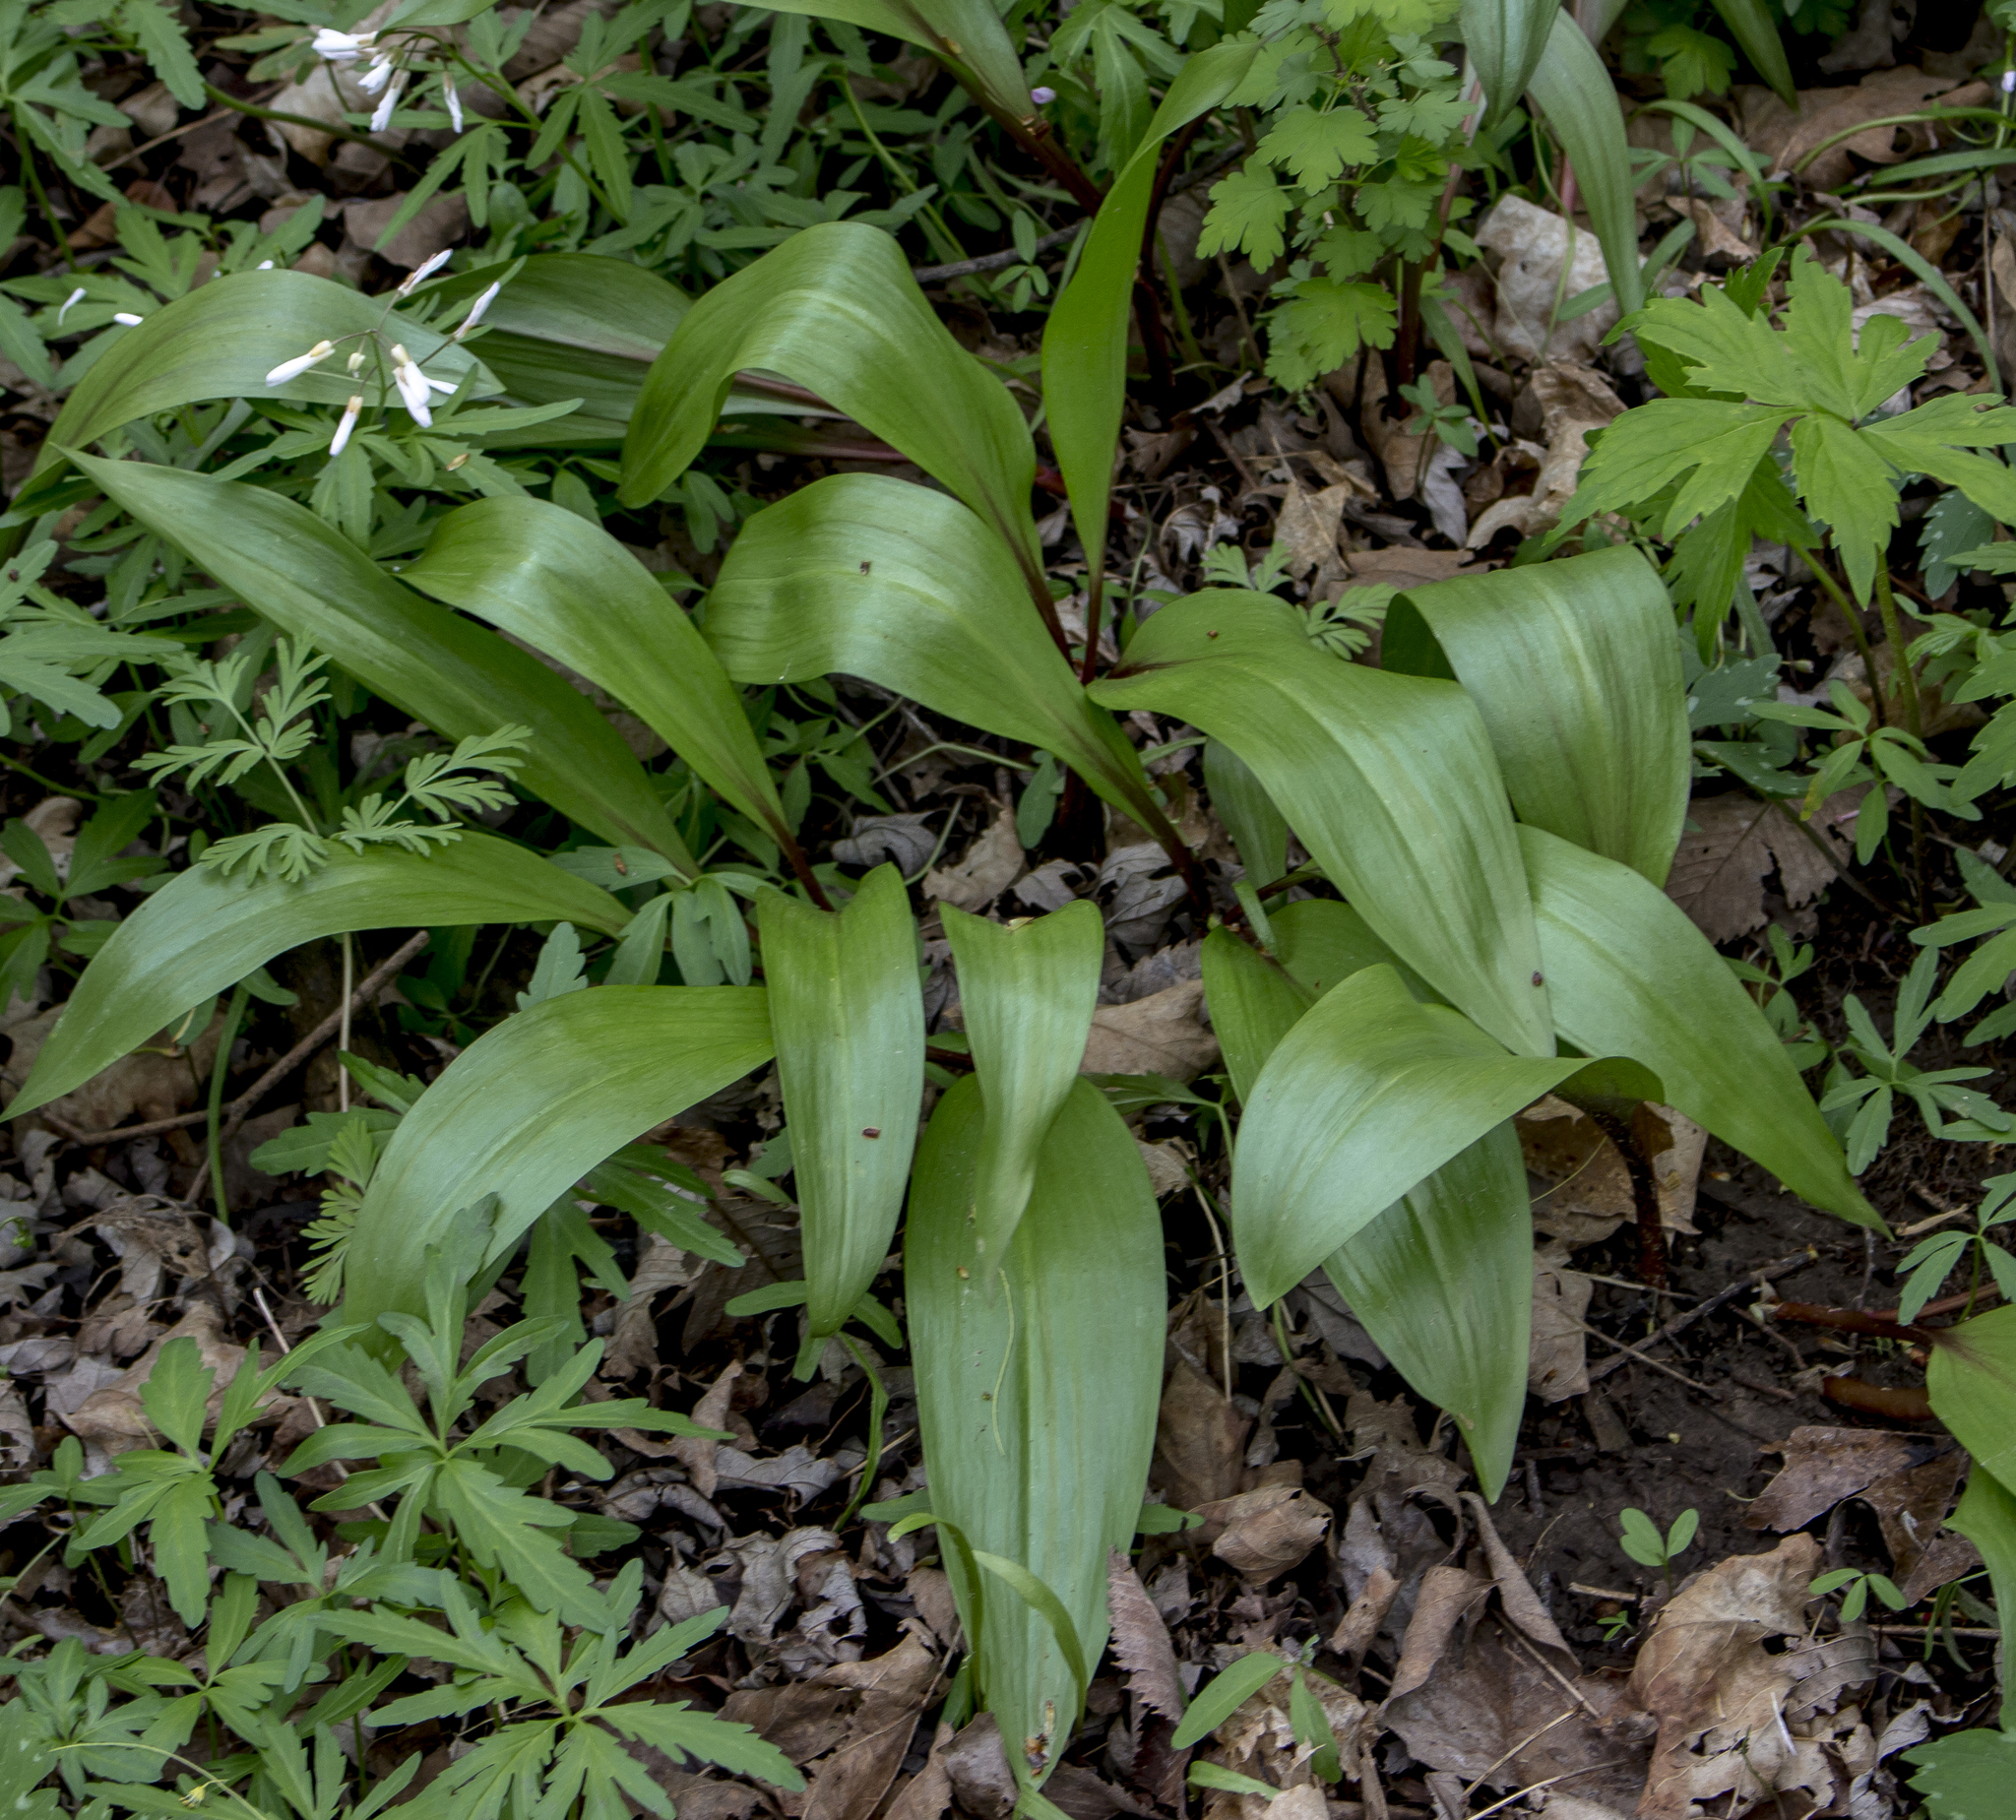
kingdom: Plantae
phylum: Tracheophyta
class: Liliopsida
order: Asparagales
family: Amaryllidaceae
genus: Allium
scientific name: Allium tricoccum
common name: Ramp
